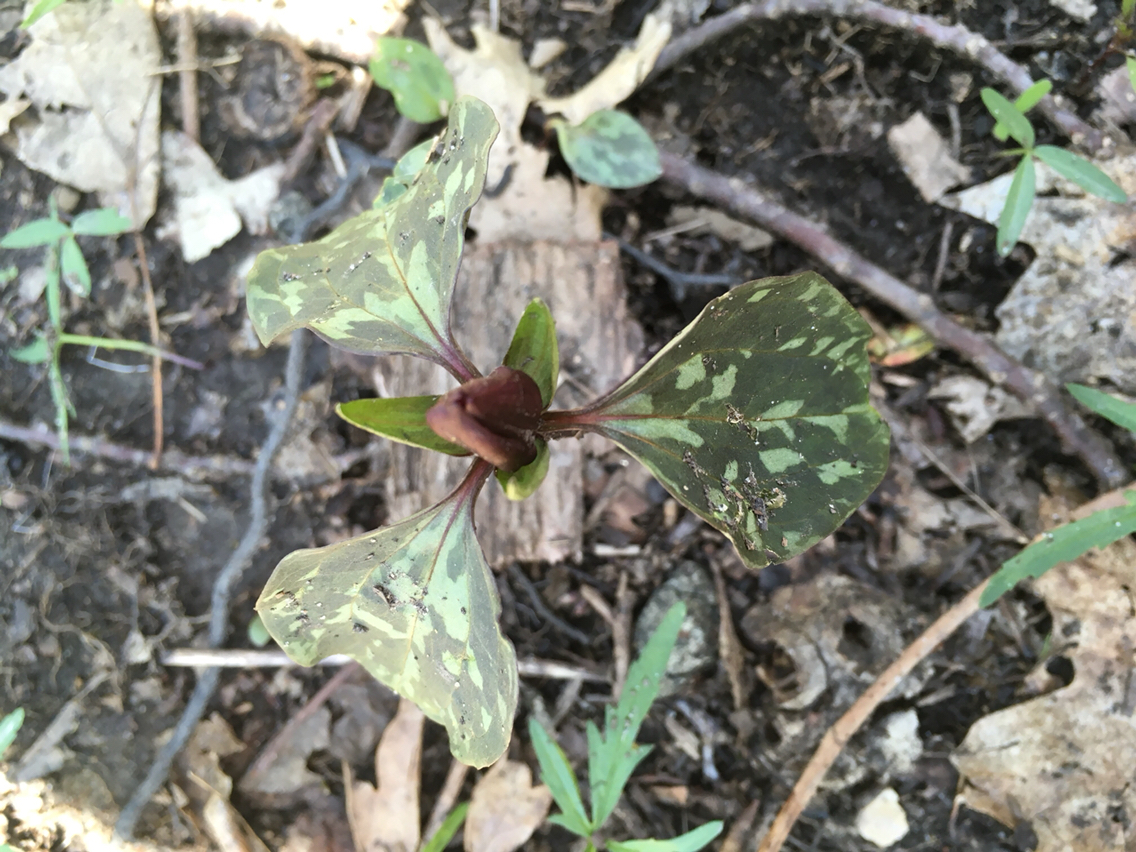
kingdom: Plantae
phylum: Tracheophyta
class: Liliopsida
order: Liliales
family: Melanthiaceae
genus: Trillium
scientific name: Trillium recurvatum
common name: Bloody butcher
